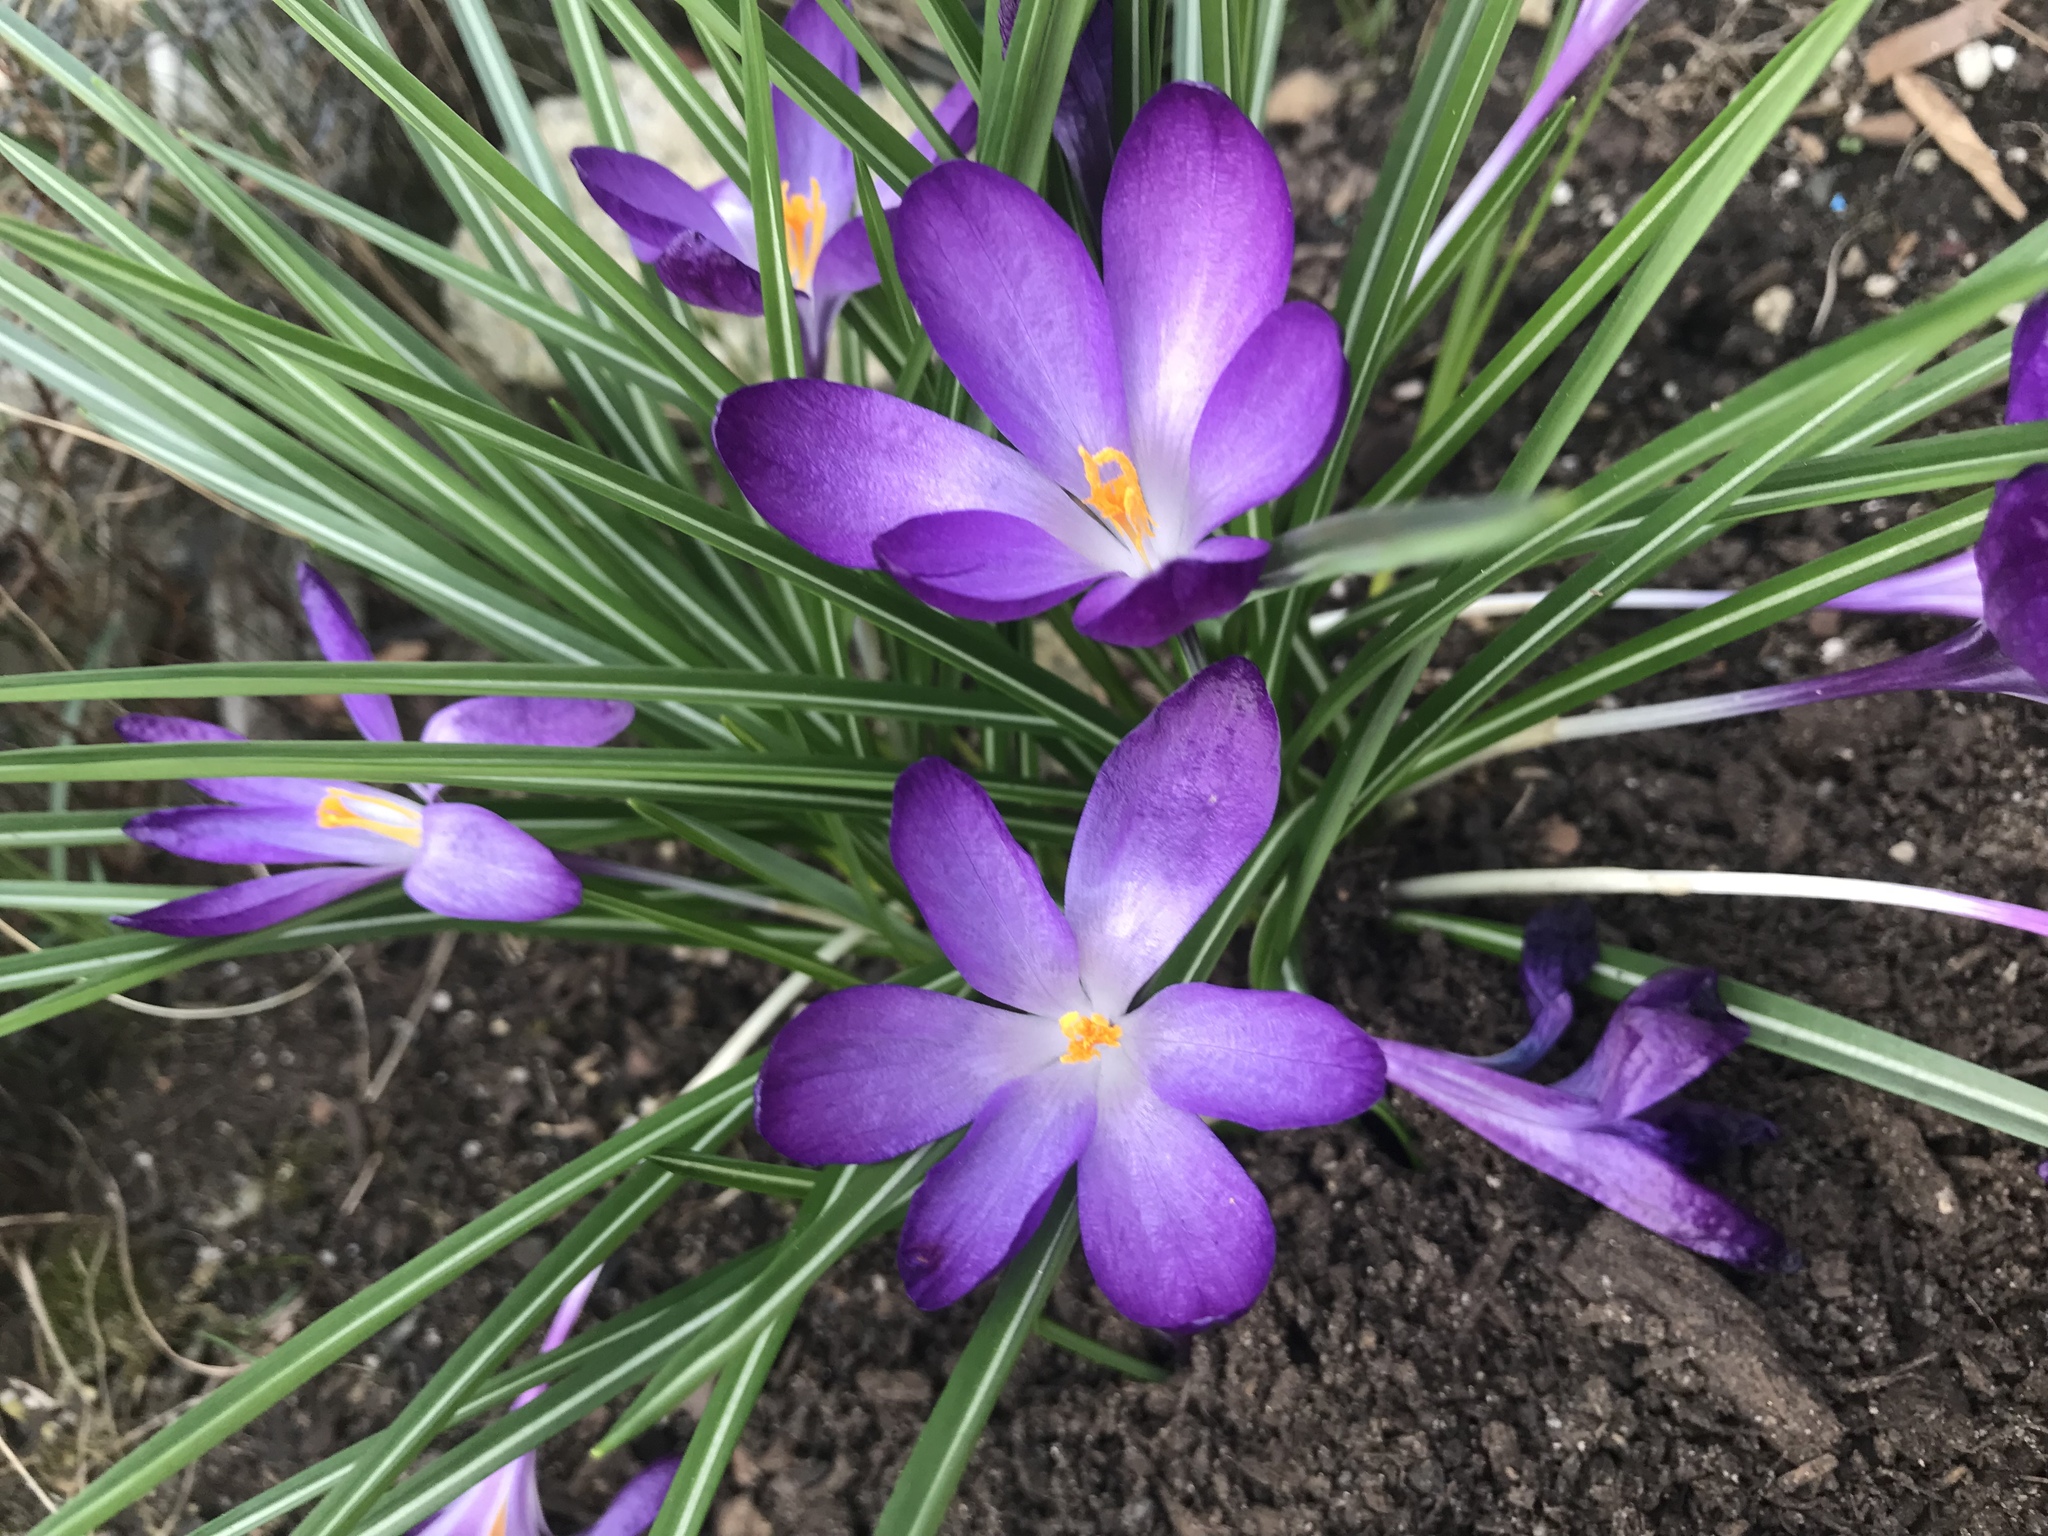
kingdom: Plantae
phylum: Tracheophyta
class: Liliopsida
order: Asparagales
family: Iridaceae
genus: Crocus
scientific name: Crocus tommasinianus
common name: Early crocus
